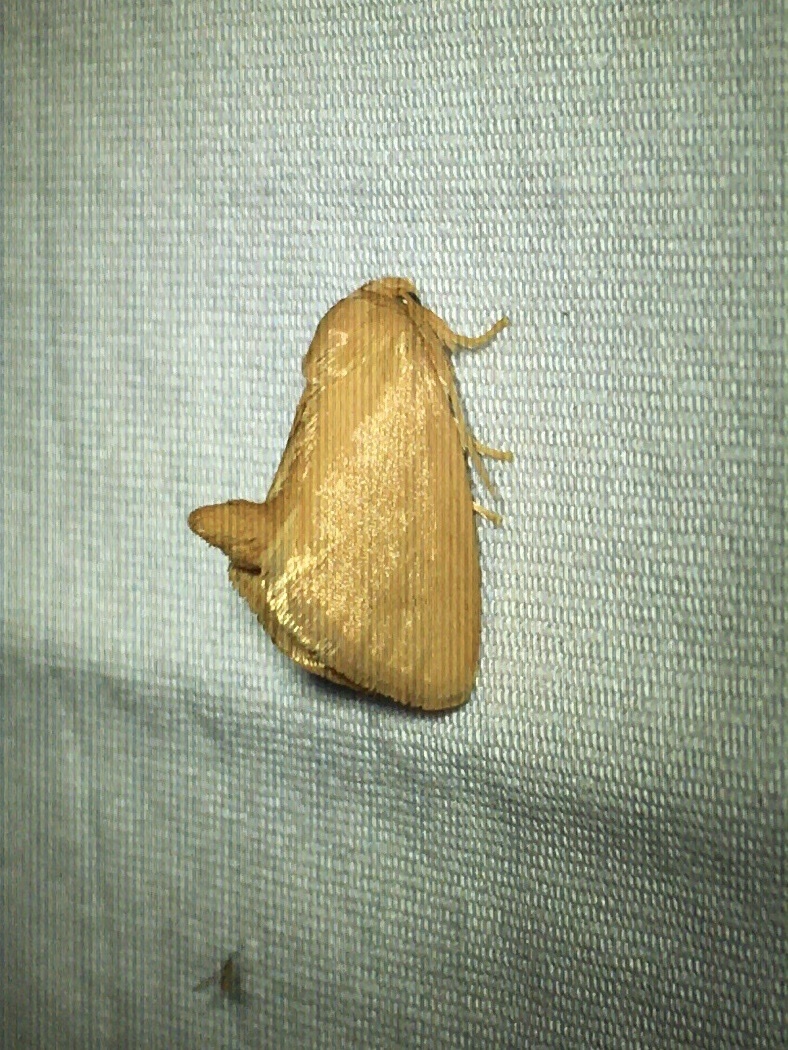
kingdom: Animalia
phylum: Arthropoda
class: Insecta
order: Lepidoptera
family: Limacodidae
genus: Tortricidia
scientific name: Tortricidia pallida
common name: Red-crossed button slug moth
